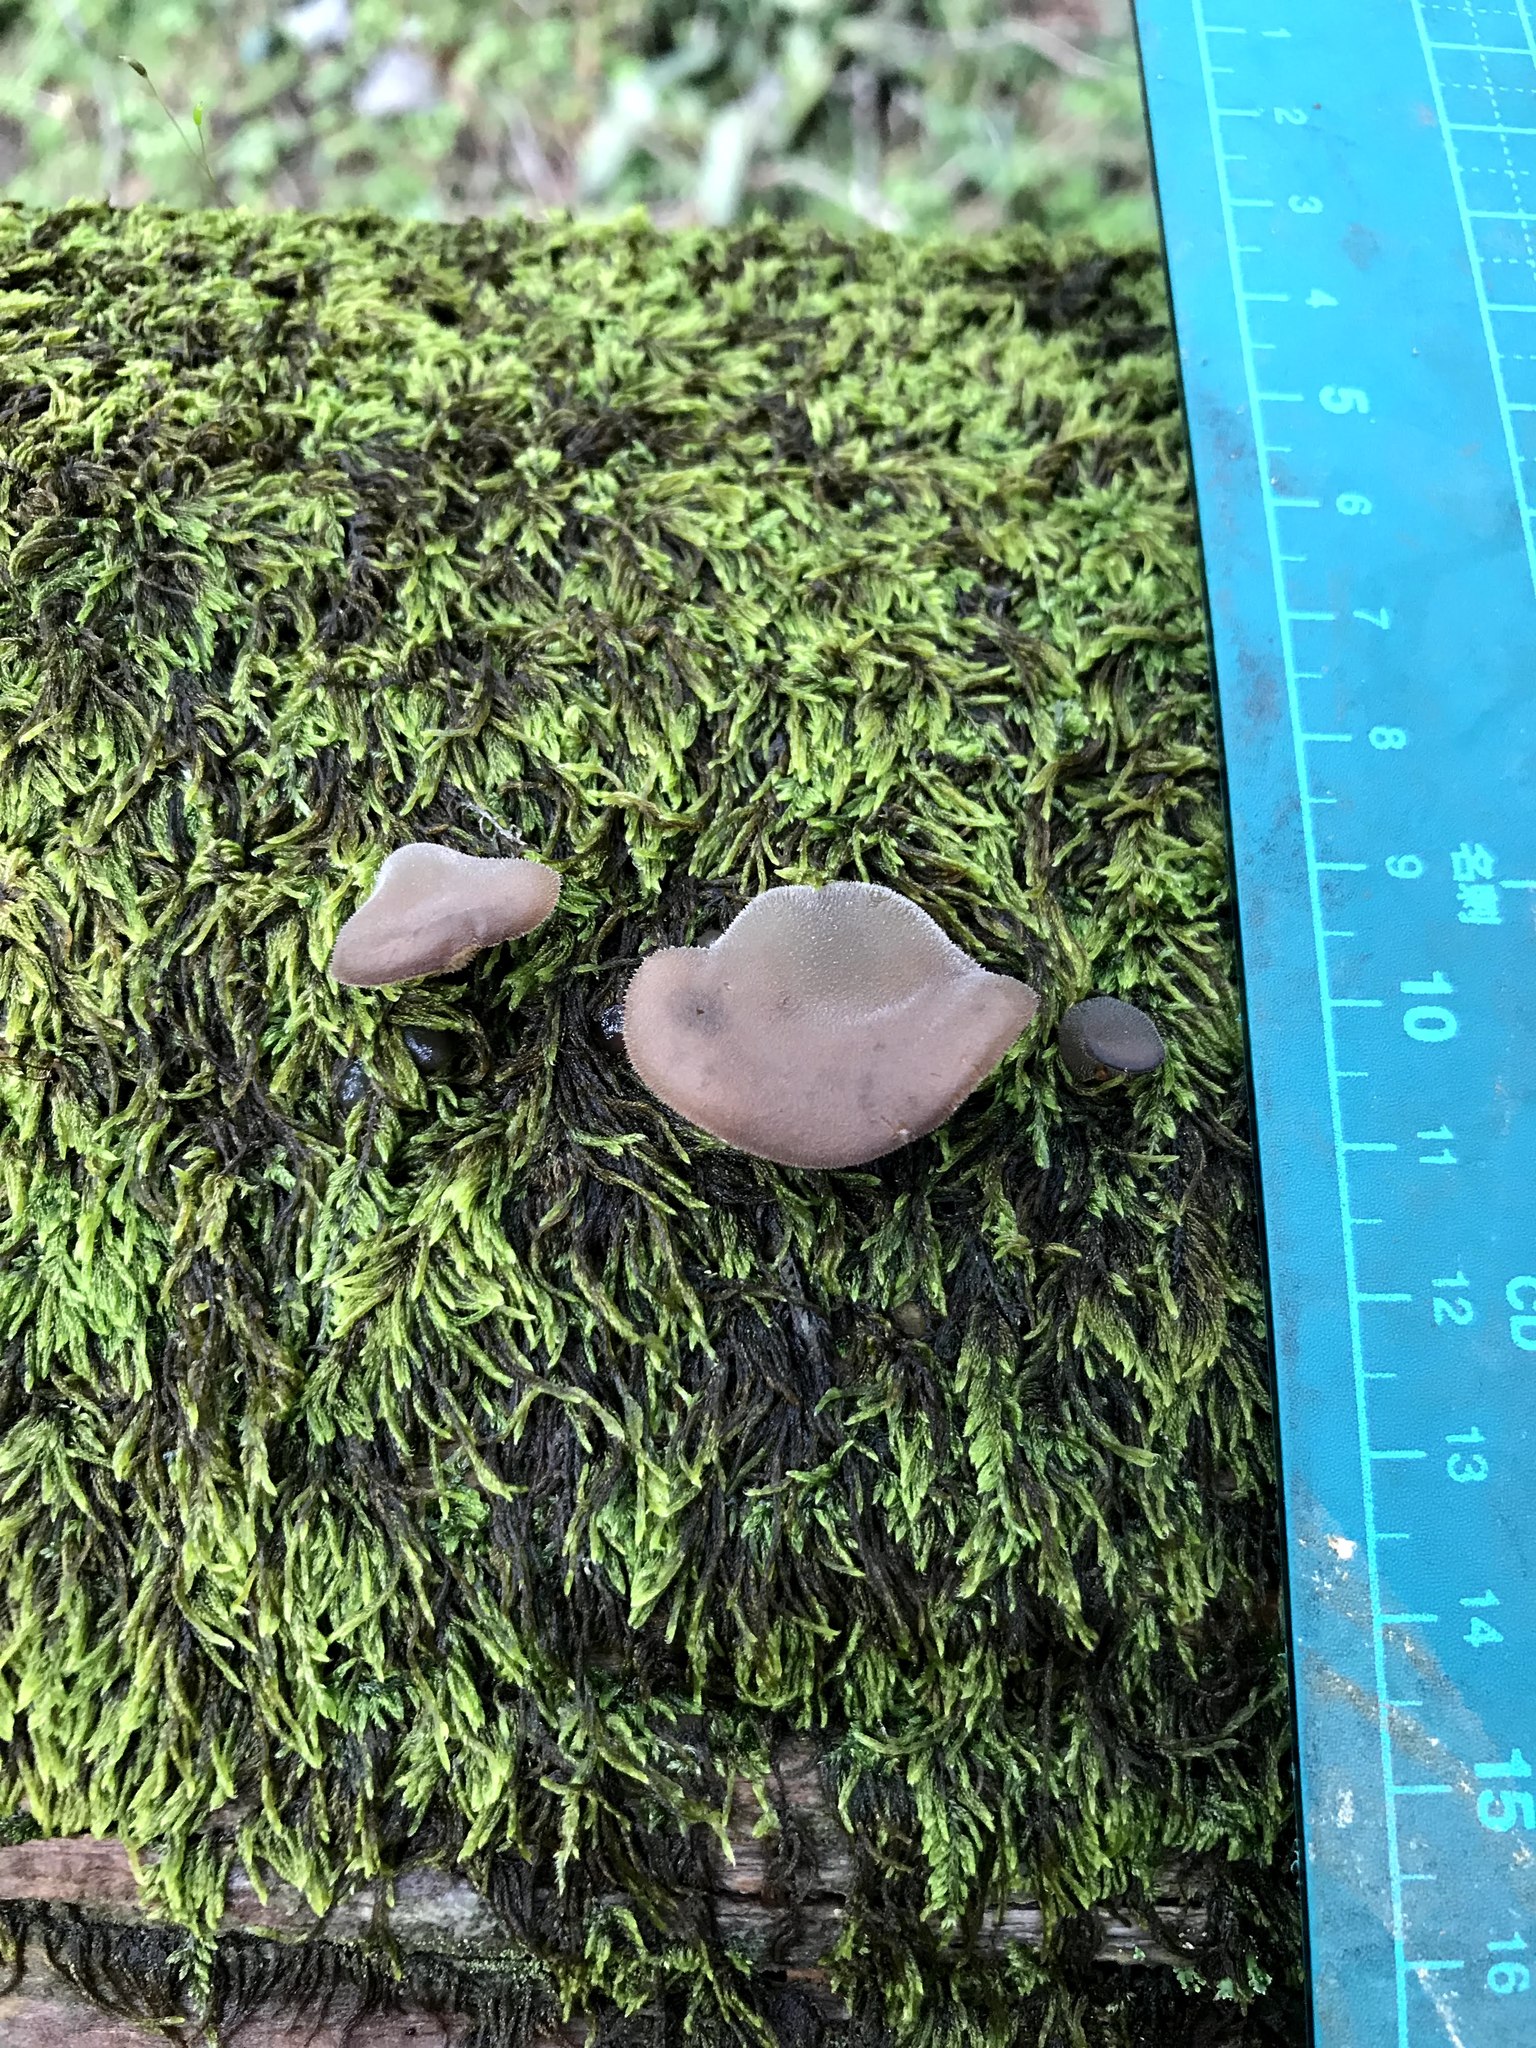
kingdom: Fungi
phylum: Basidiomycota
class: Agaricomycetes
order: Auriculariales
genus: Pseudohydnum
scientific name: Pseudohydnum gelatinosum
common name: Jelly tongue
